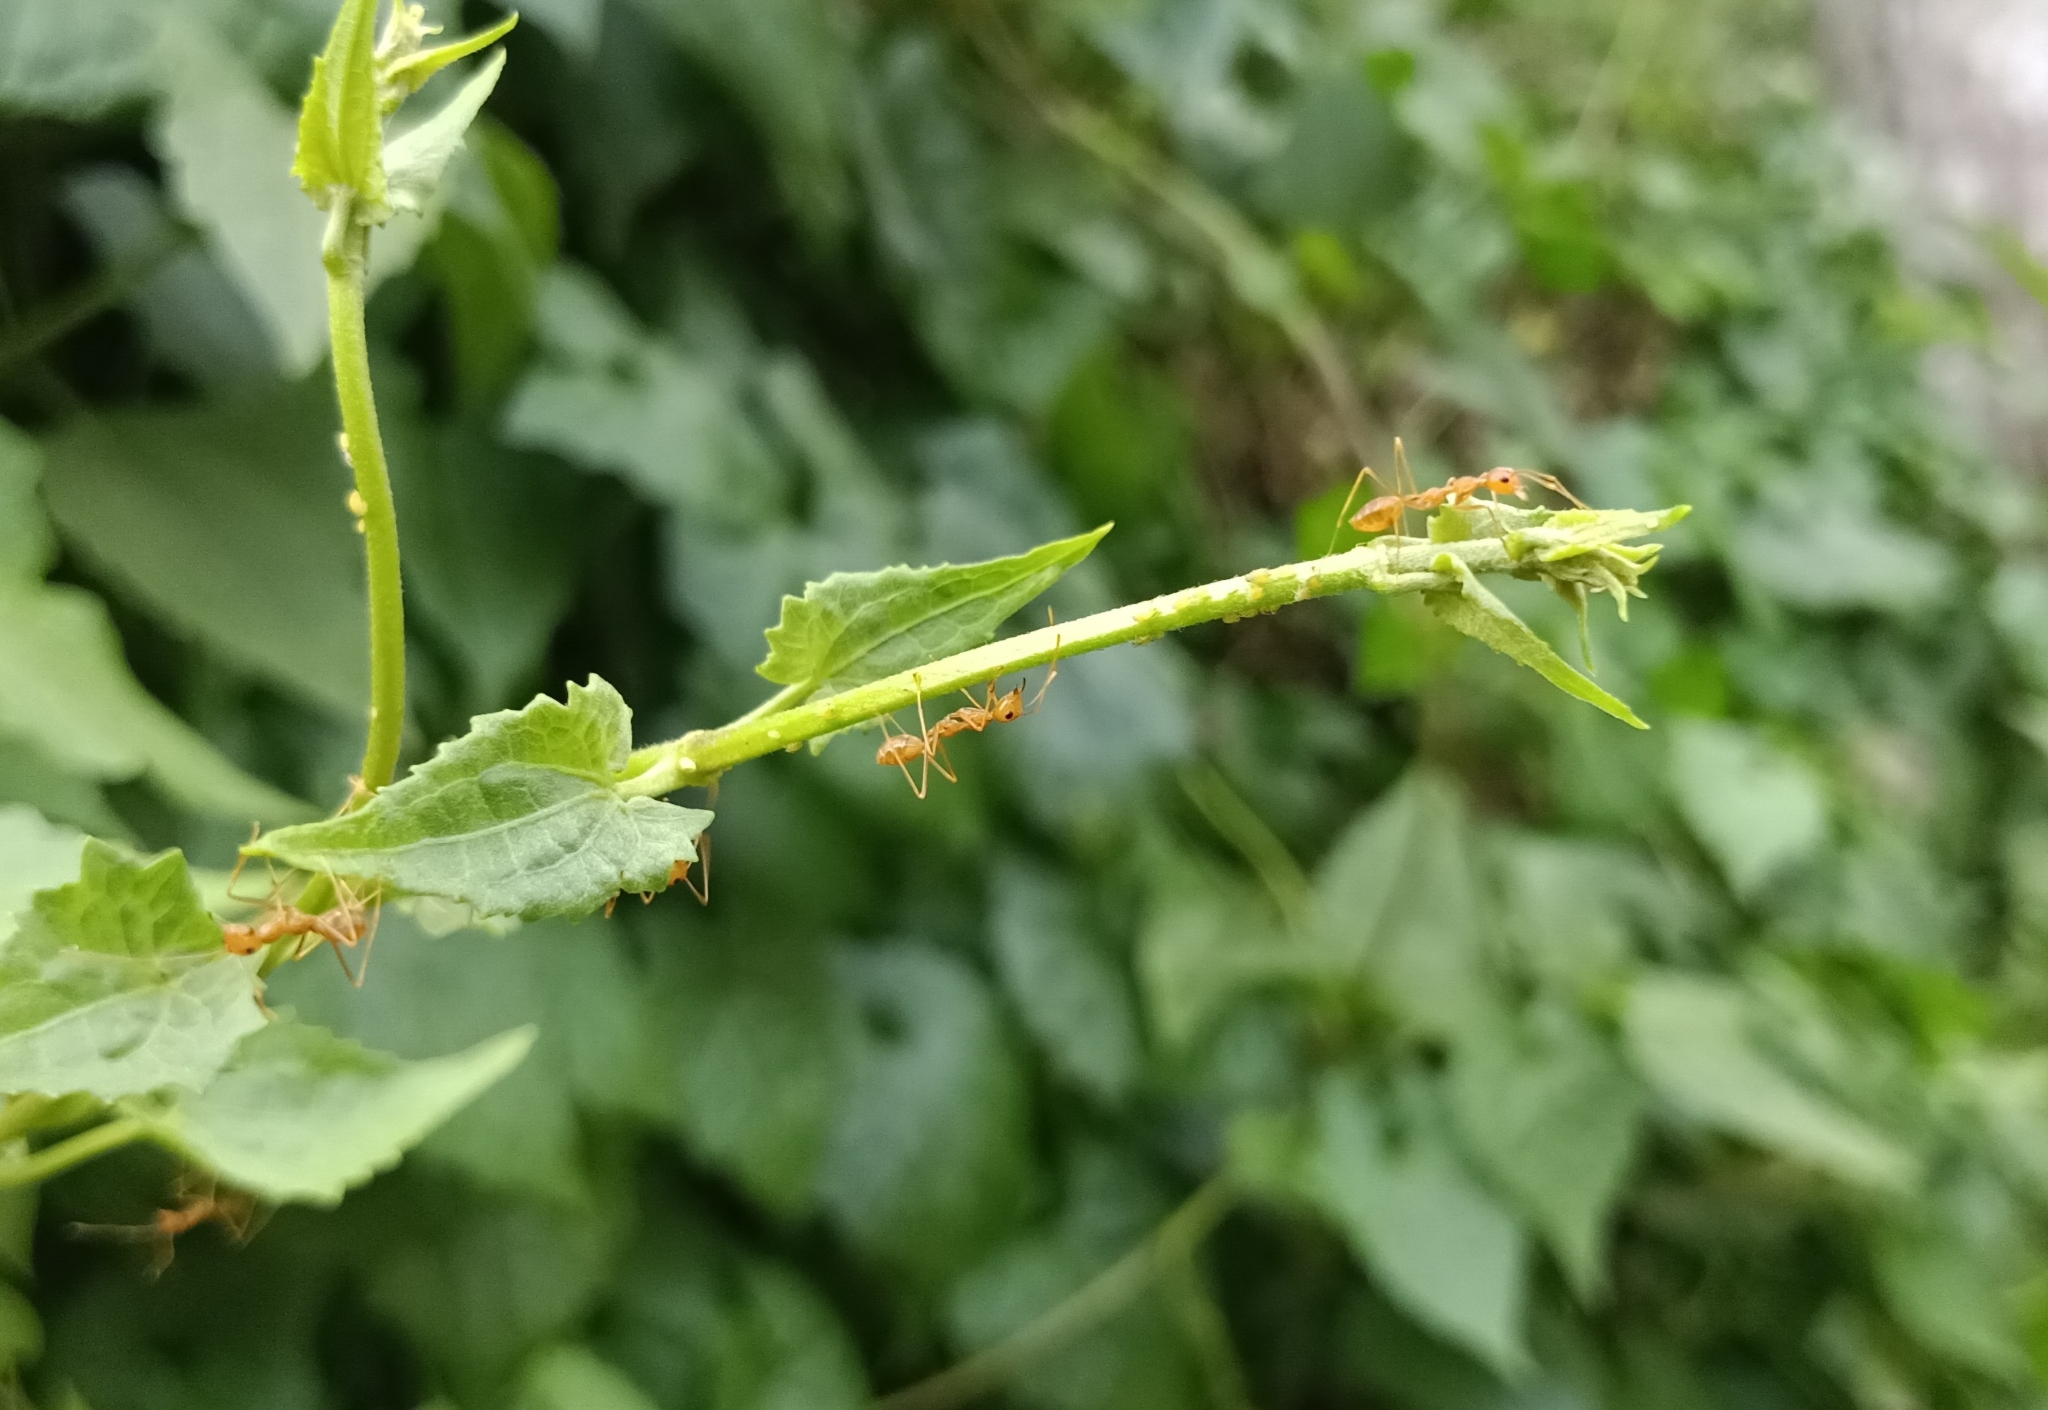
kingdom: Animalia
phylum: Arthropoda
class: Insecta
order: Hymenoptera
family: Formicidae
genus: Oecophylla
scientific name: Oecophylla smaragdina
